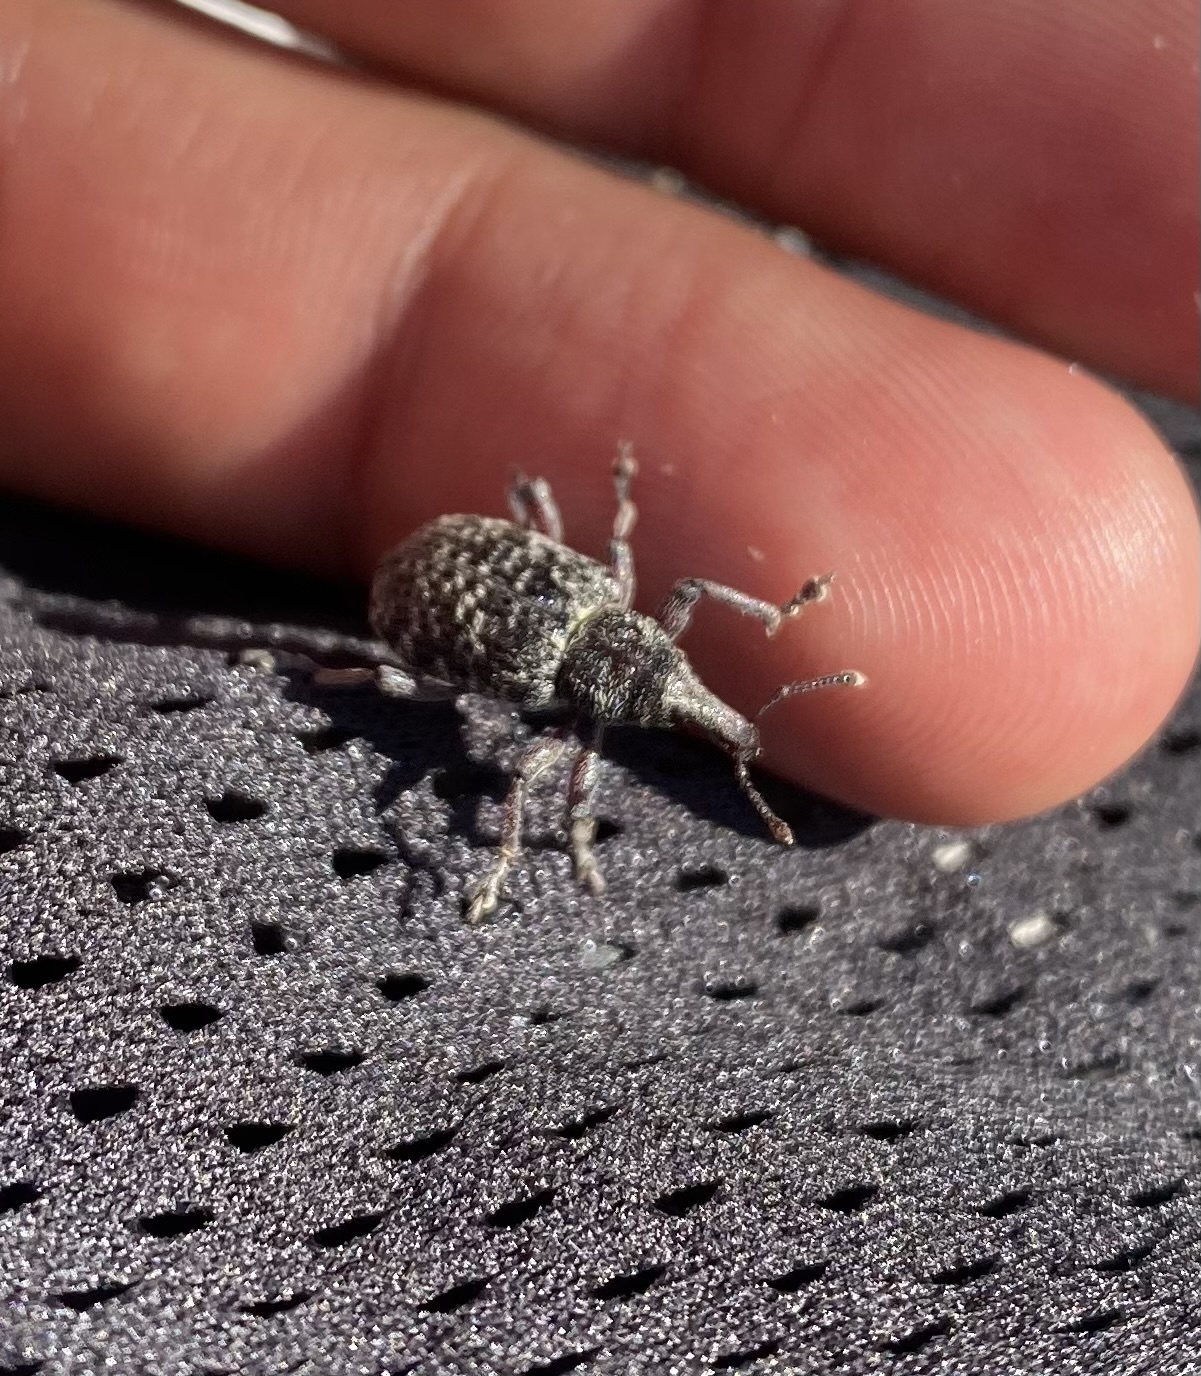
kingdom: Animalia
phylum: Arthropoda
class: Insecta
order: Coleoptera
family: Curculionidae
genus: Hylobius
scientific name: Hylobius excavatus
